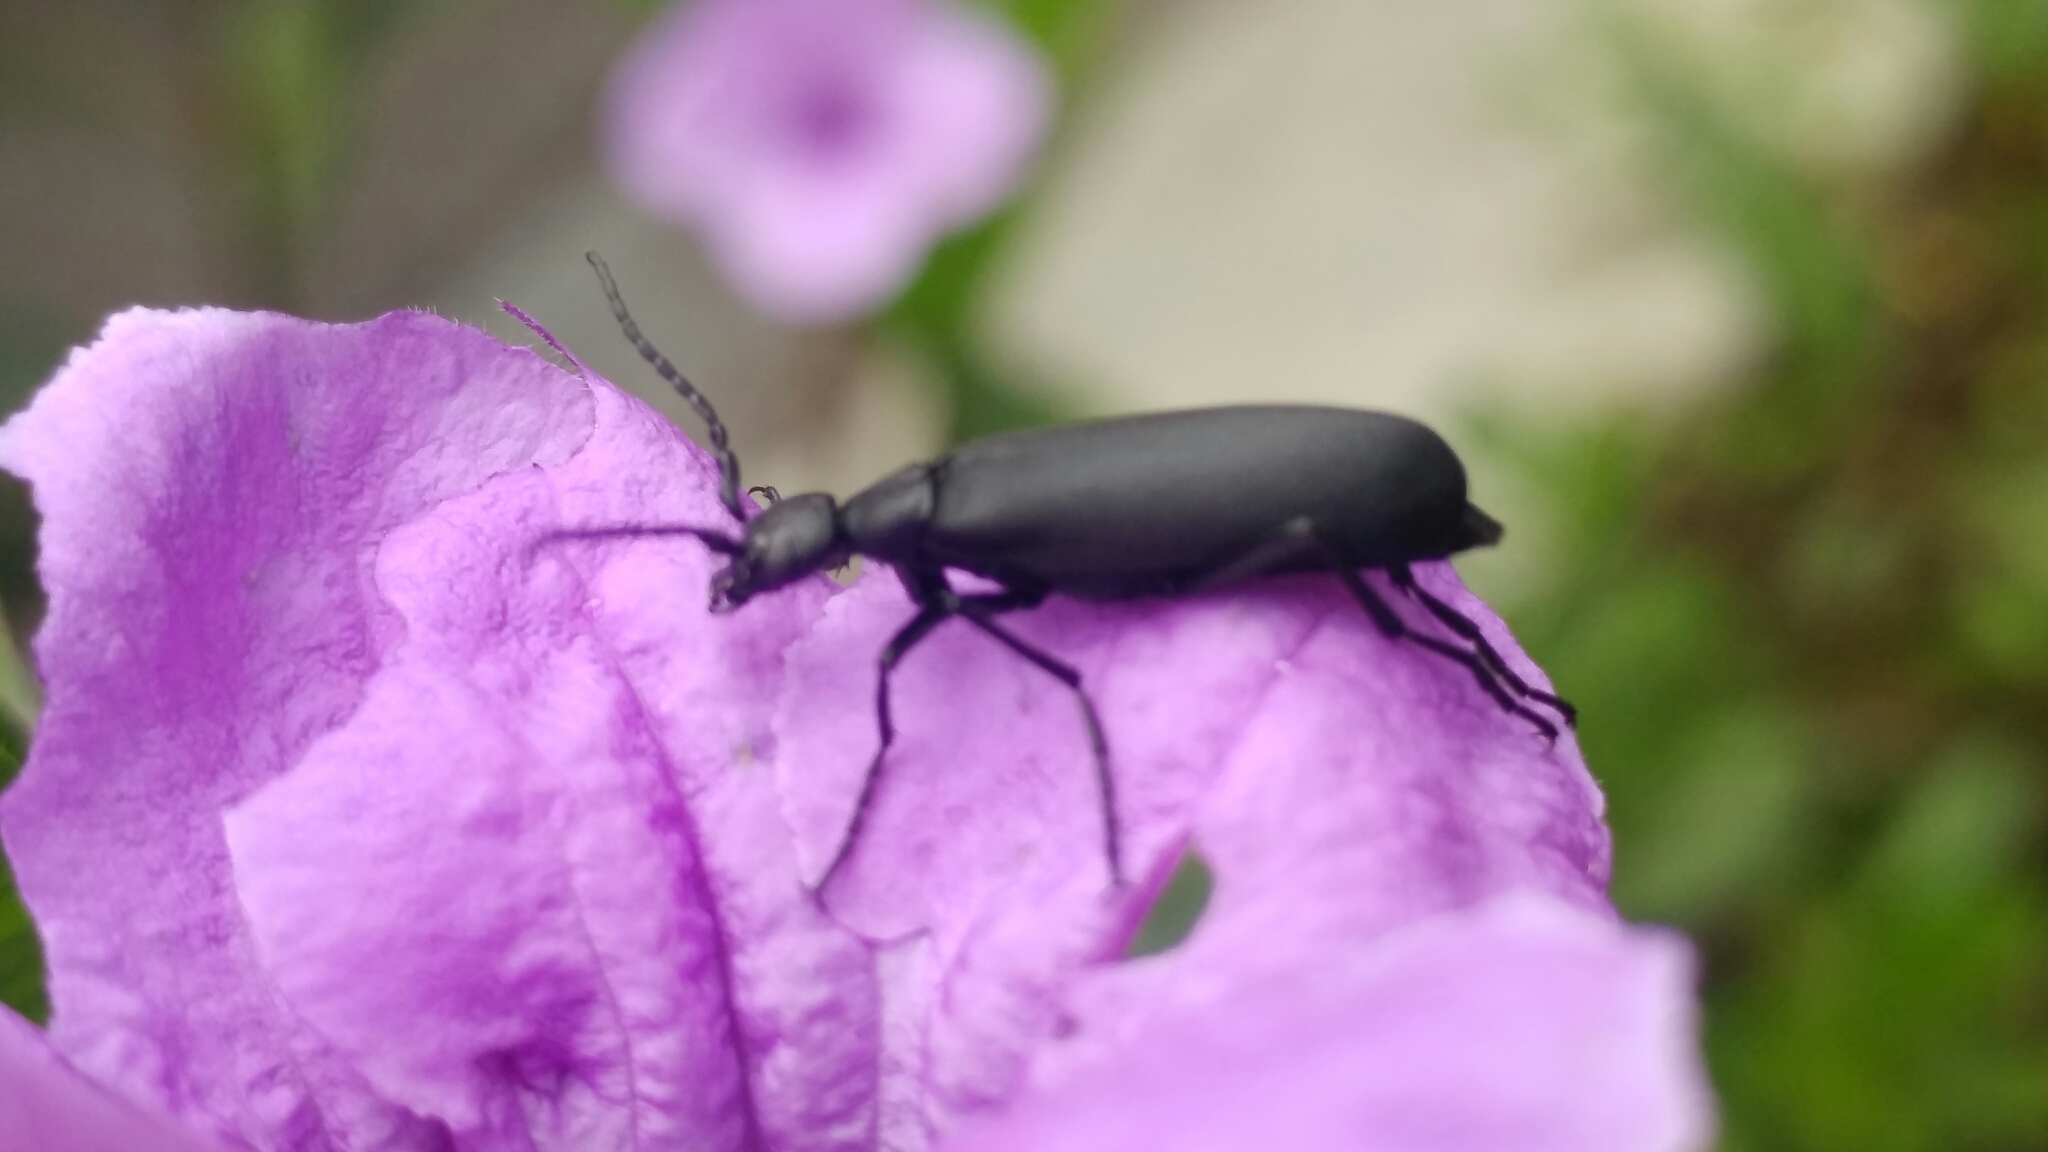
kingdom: Animalia
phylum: Arthropoda
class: Insecta
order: Coleoptera
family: Meloidae
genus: Epicauta
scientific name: Epicauta leoni
